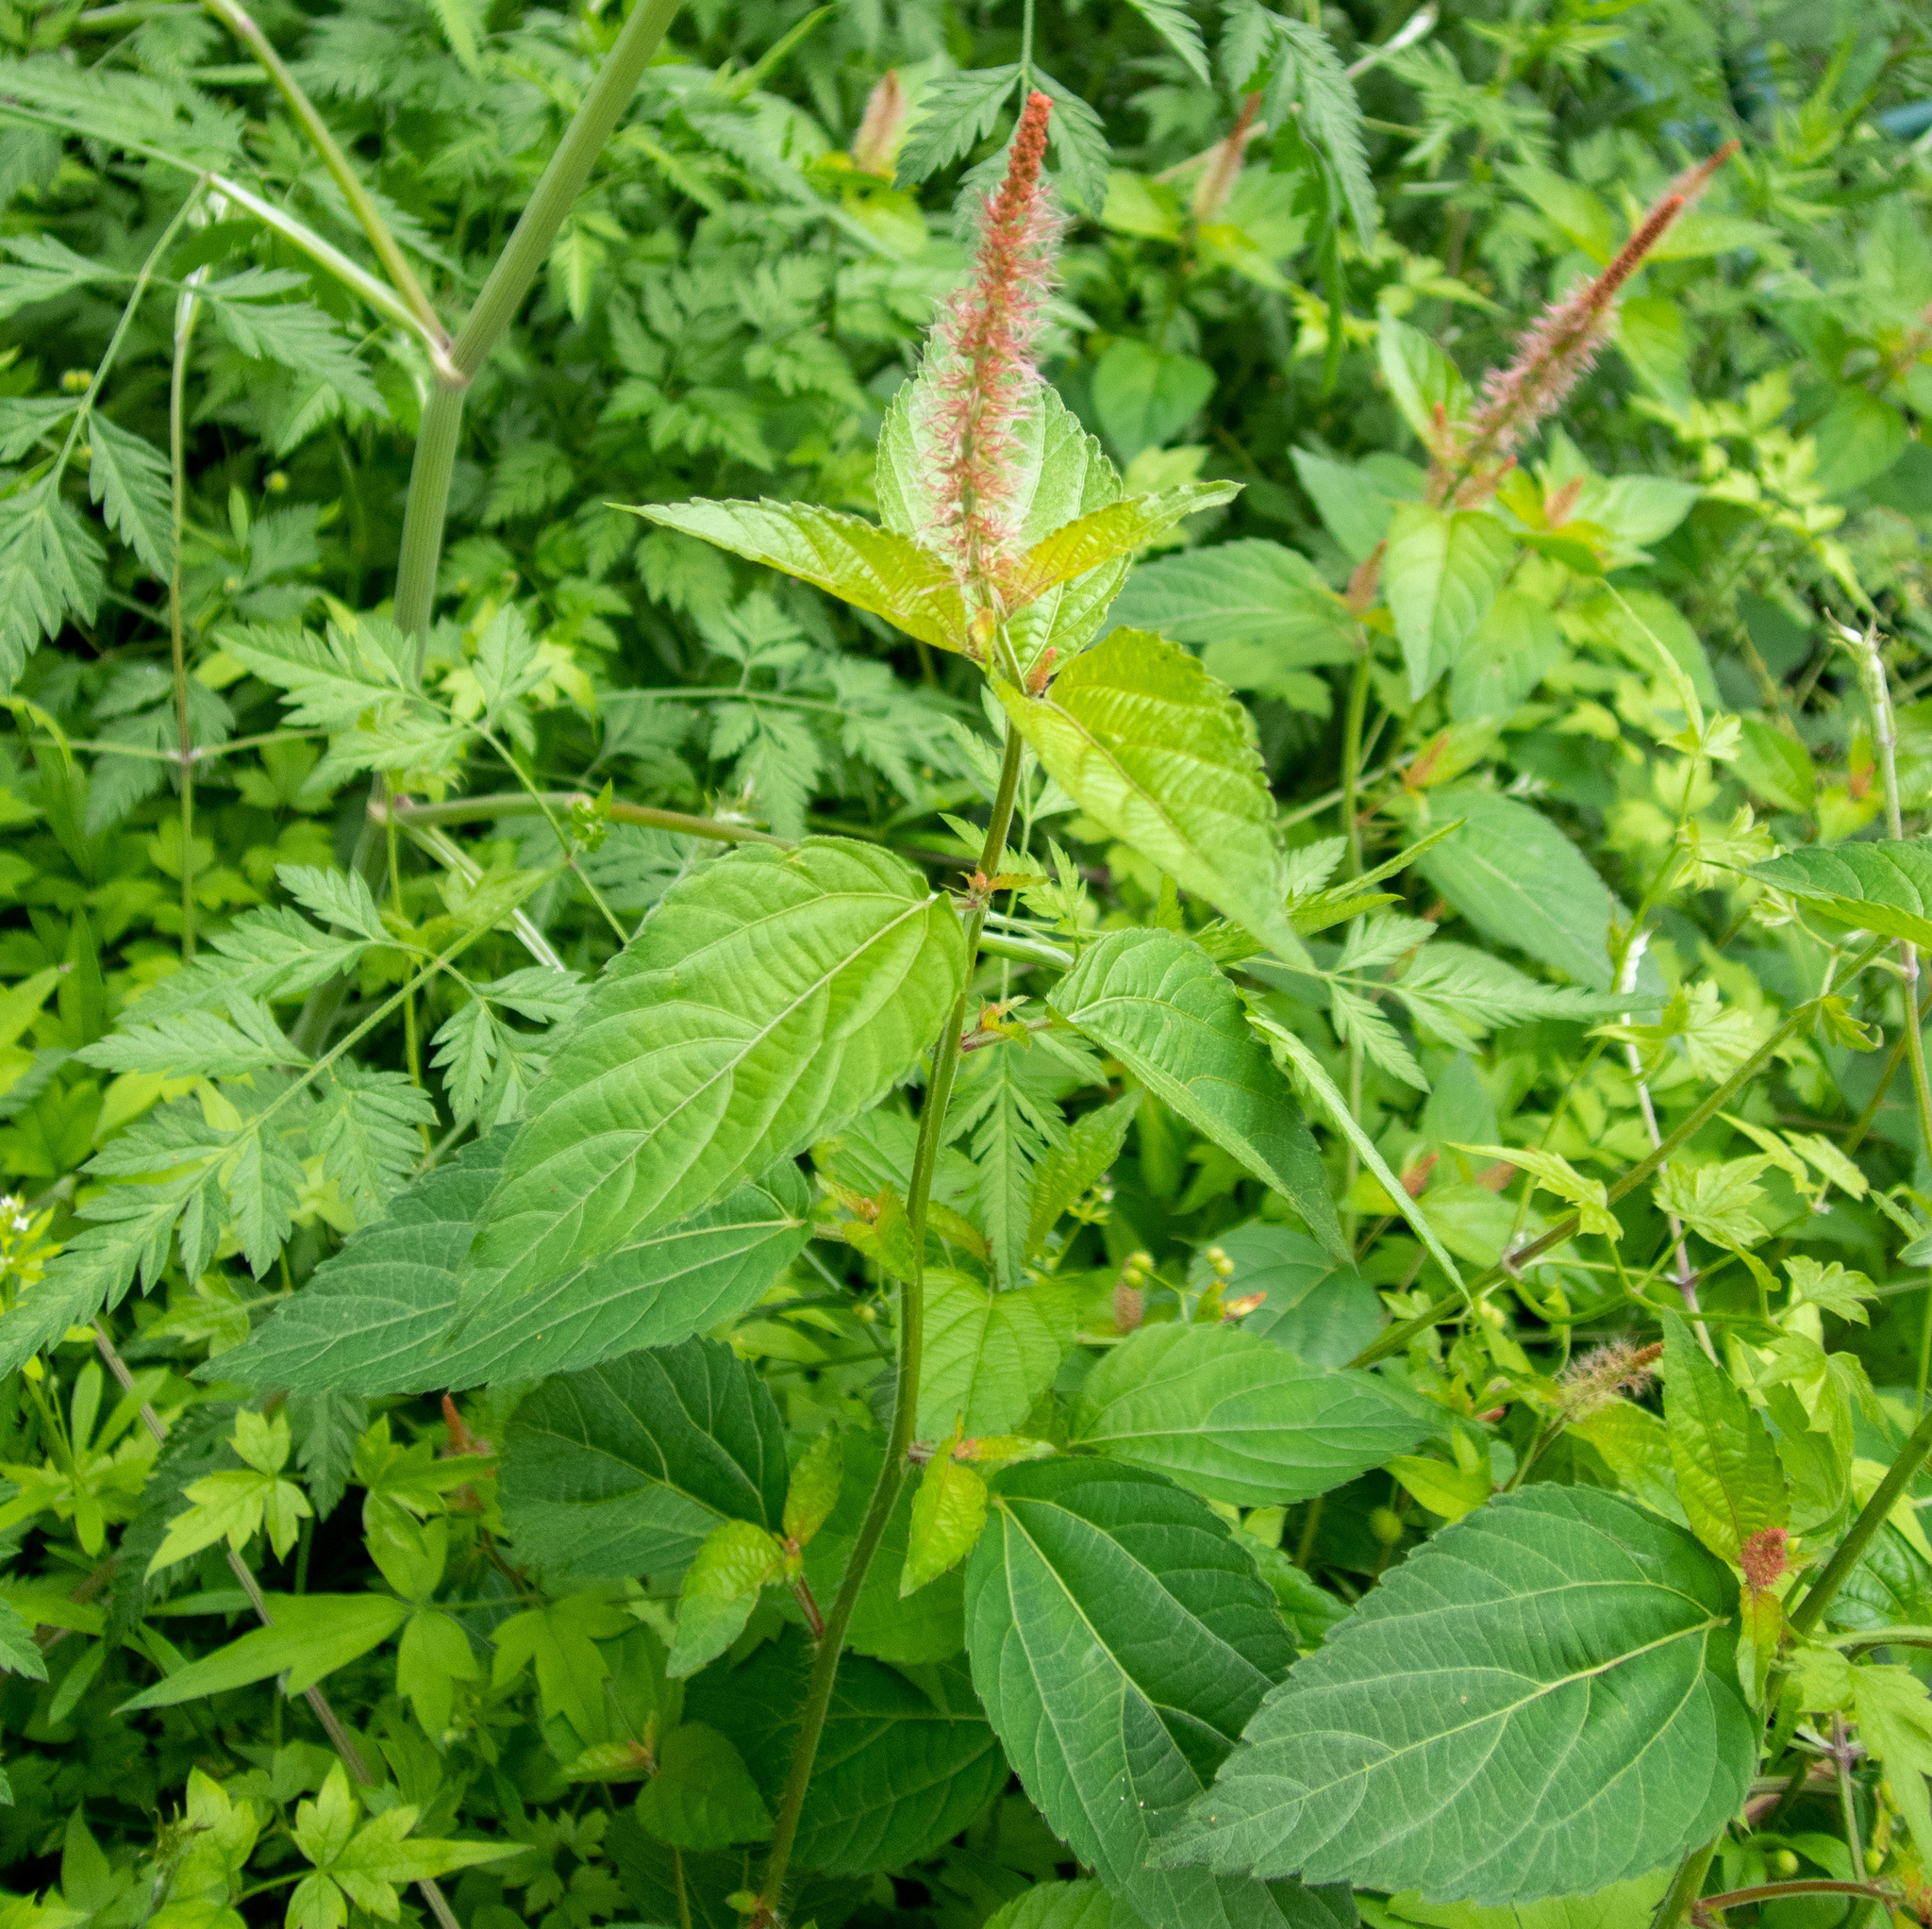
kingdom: Plantae
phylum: Tracheophyta
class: Magnoliopsida
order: Malpighiales
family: Euphorbiaceae
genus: Acalypha
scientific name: Acalypha phleoides
